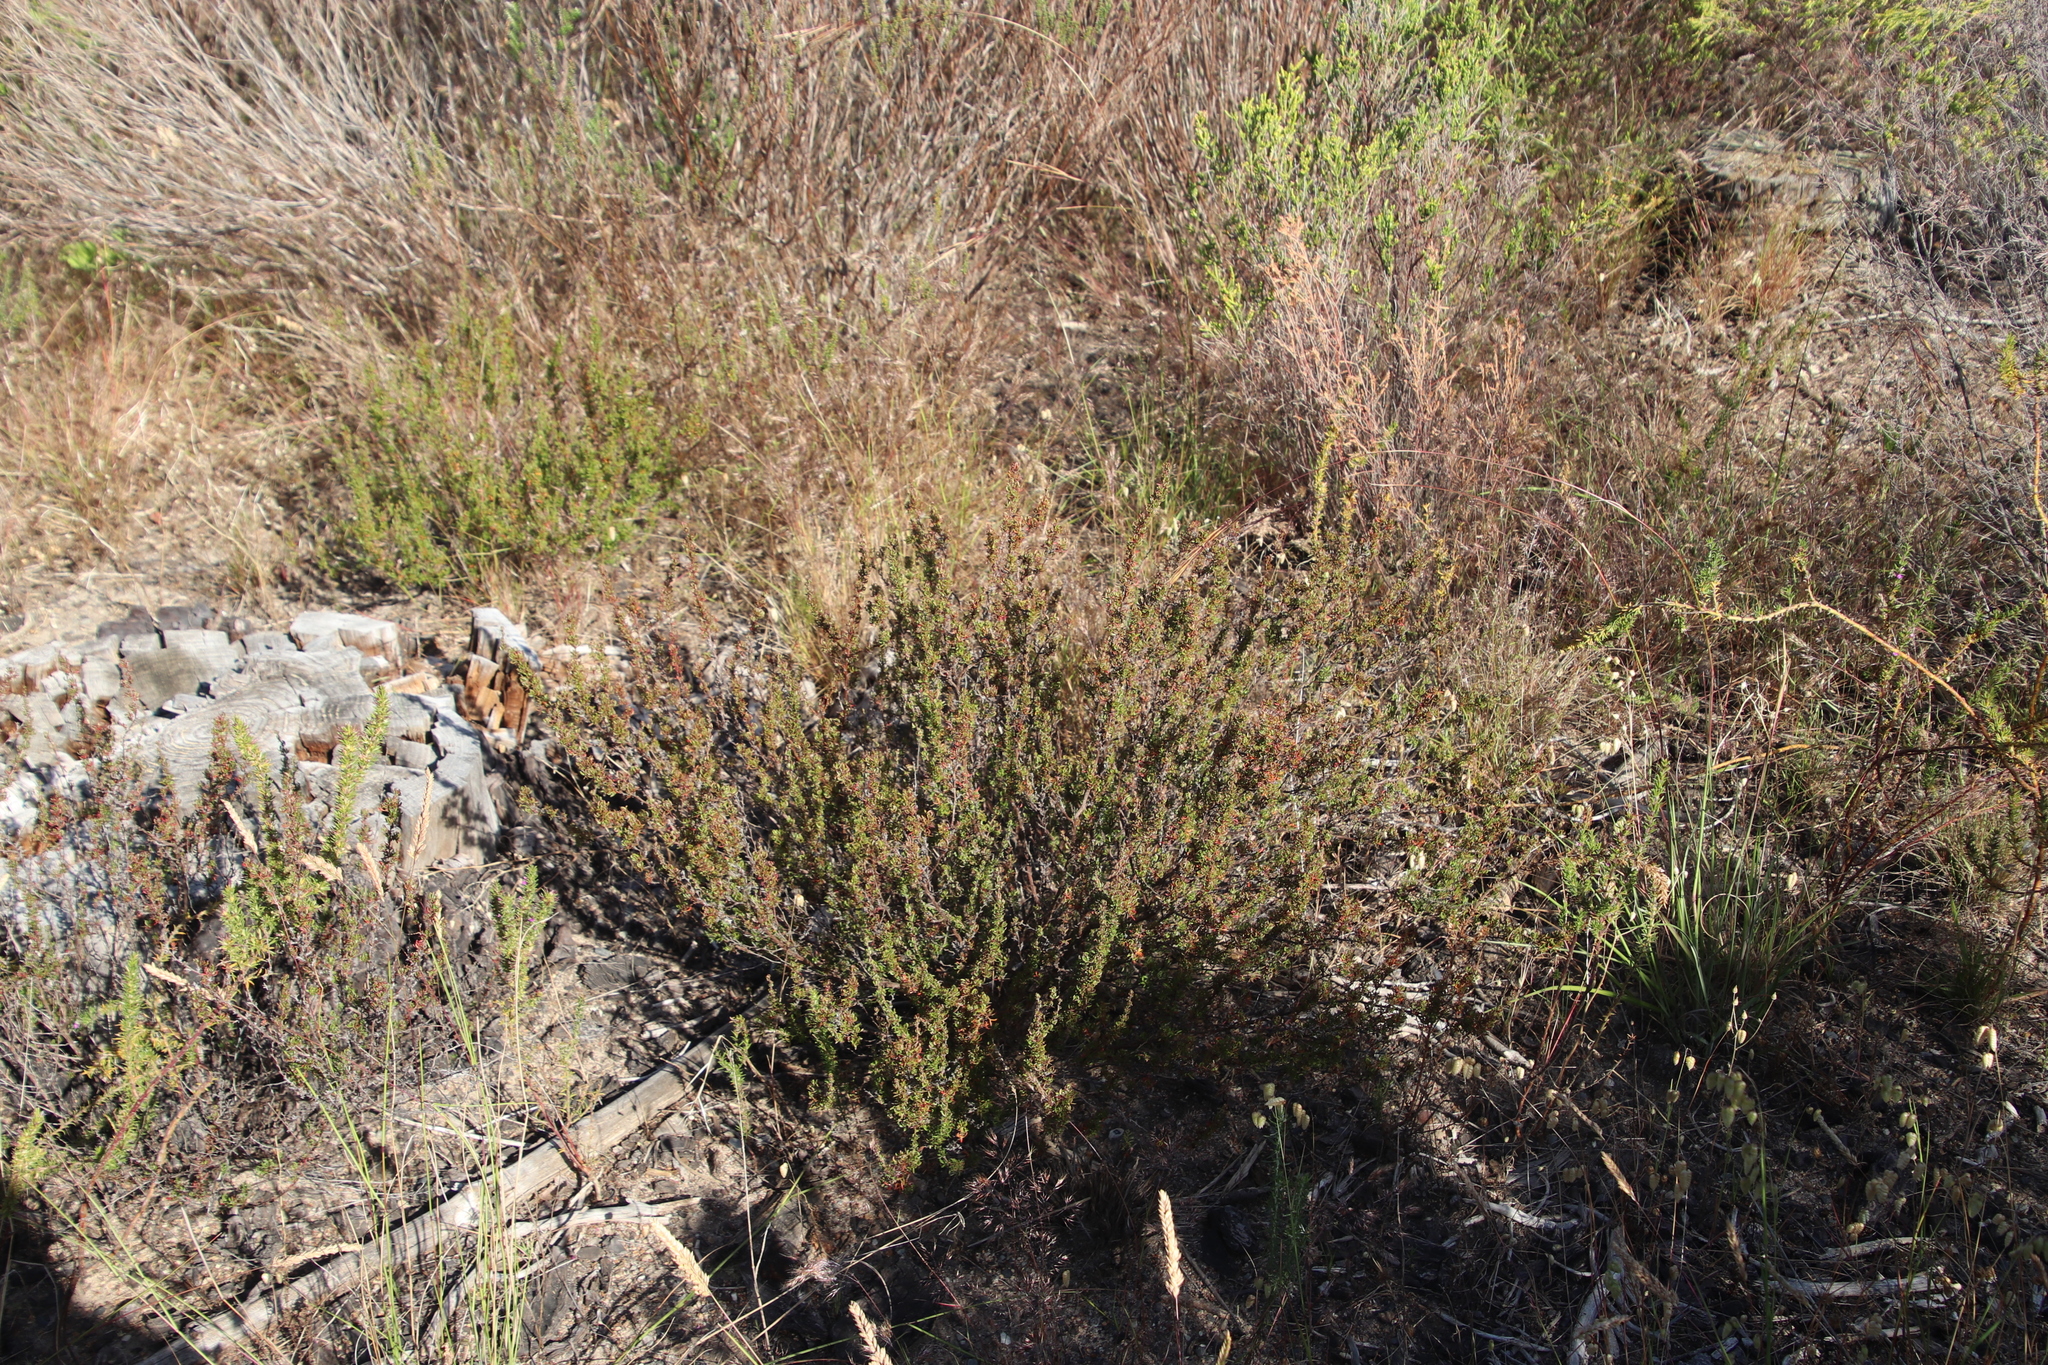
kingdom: Plantae
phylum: Tracheophyta
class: Magnoliopsida
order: Rosales
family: Rosaceae
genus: Cliffortia
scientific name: Cliffortia falcata
